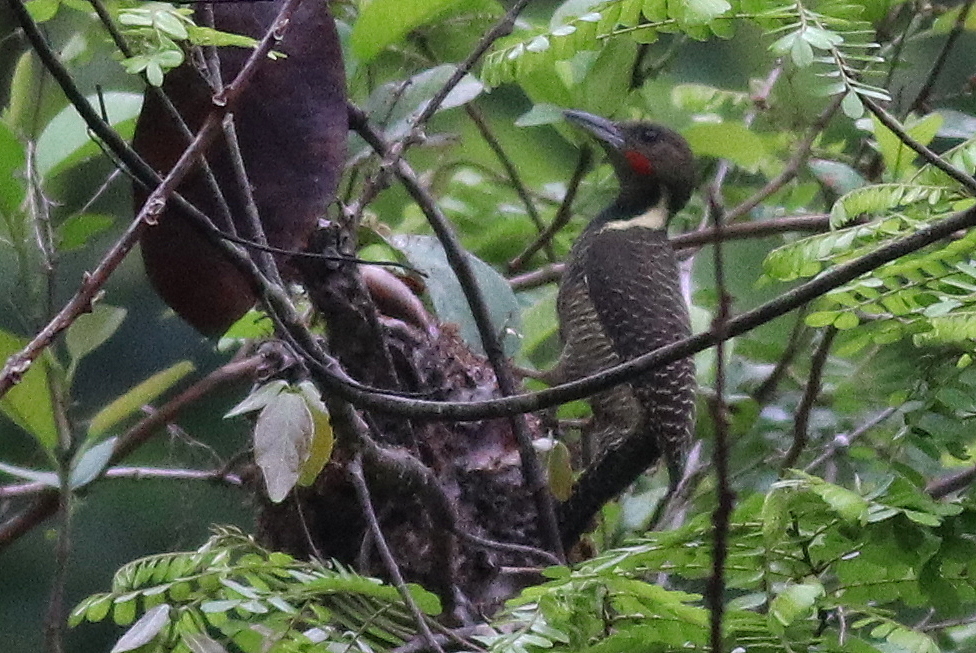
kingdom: Animalia
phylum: Chordata
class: Aves
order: Piciformes
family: Picidae
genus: Meiglyptes
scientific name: Meiglyptes tukki
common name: Buff-necked woodpecker
